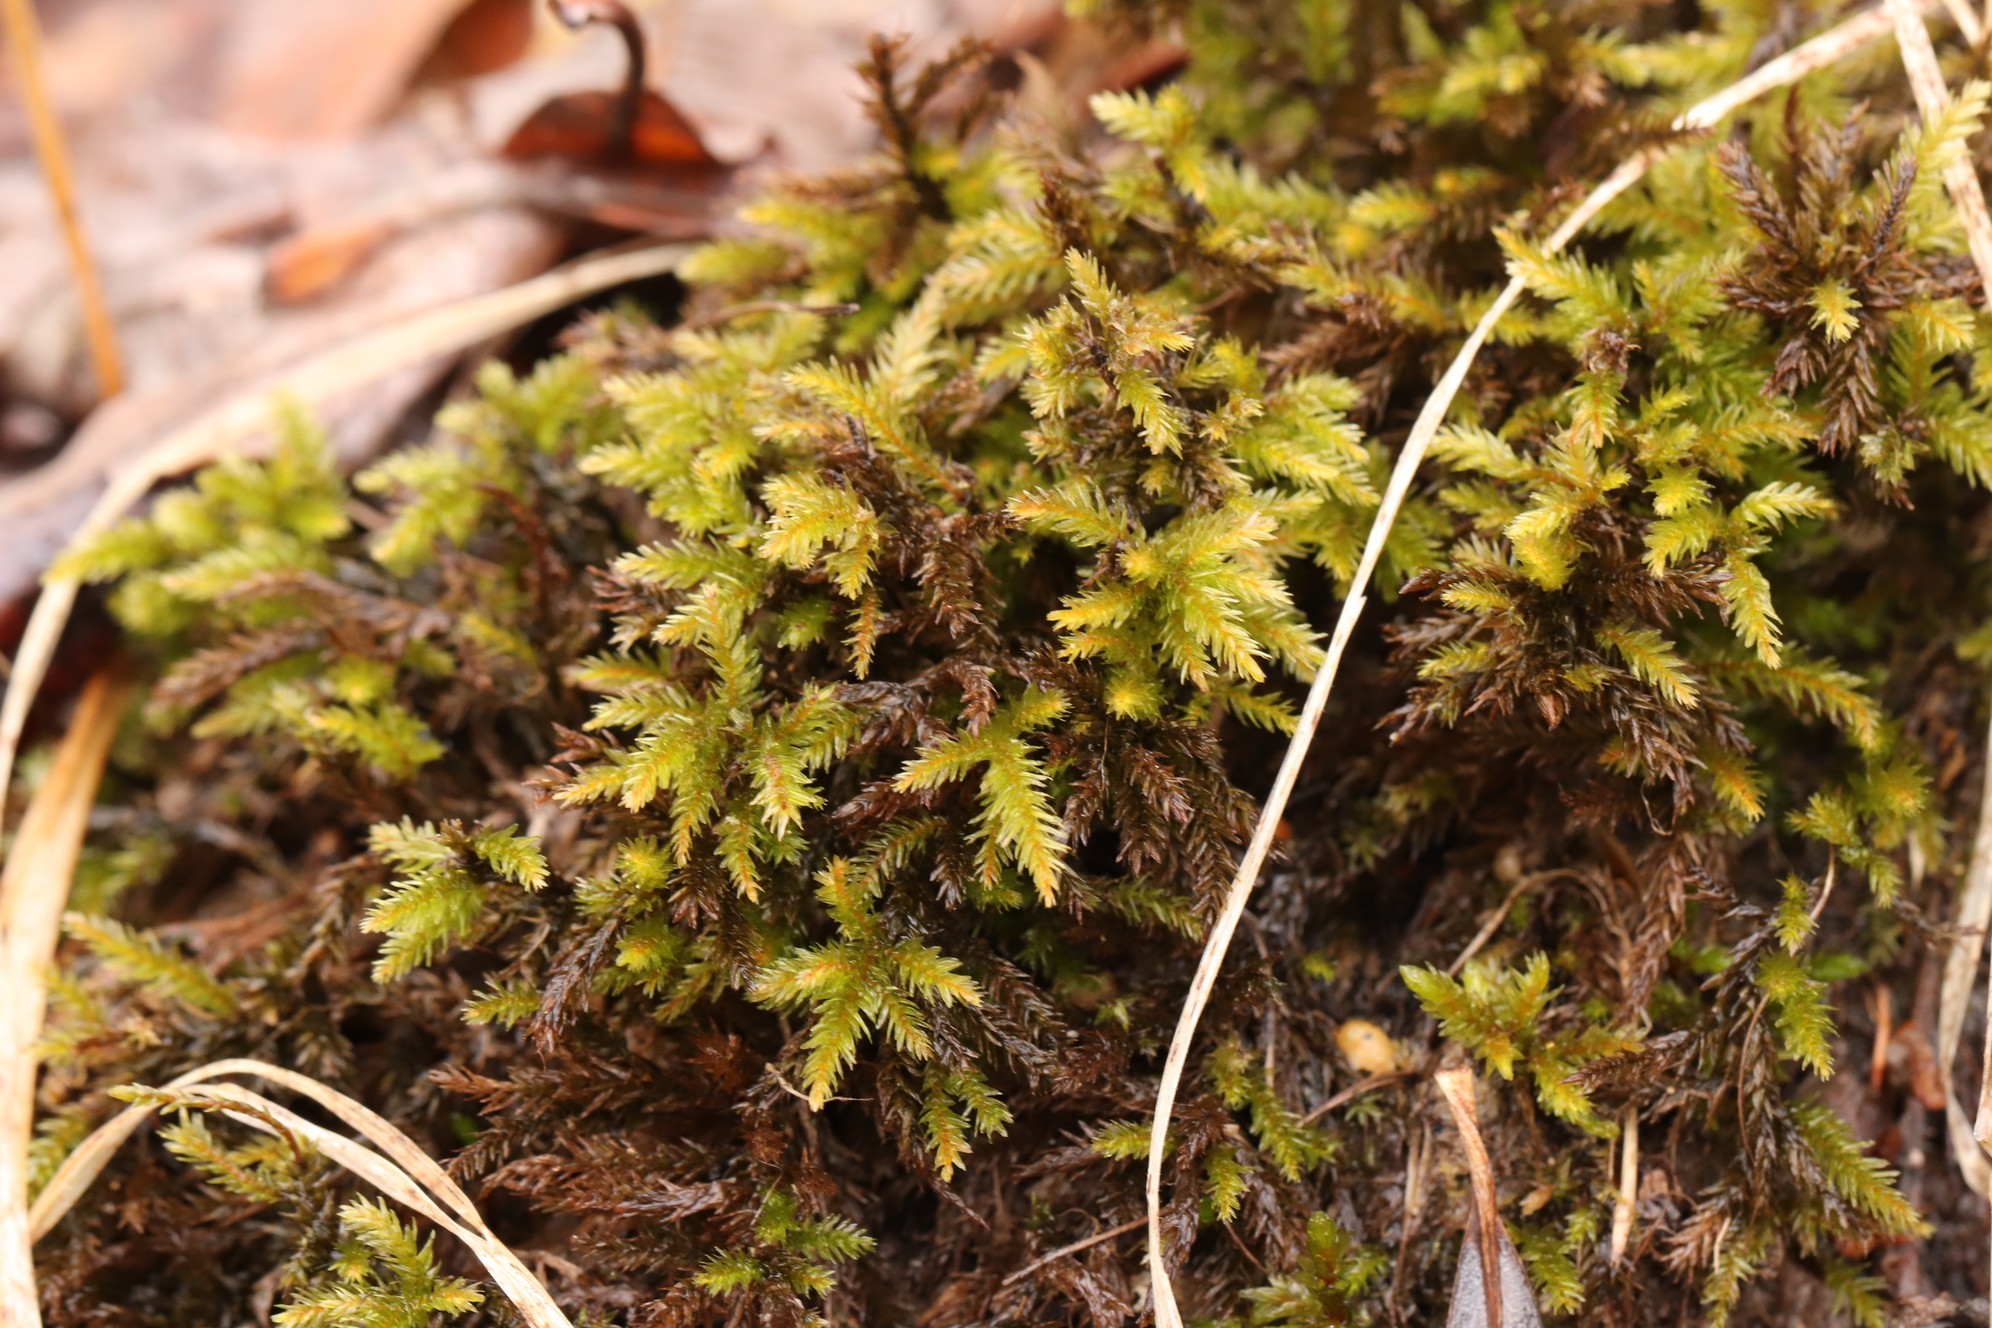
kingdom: Plantae
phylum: Bryophyta
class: Bryopsida
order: Hypnales
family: Climaciaceae
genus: Climacium
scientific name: Climacium dendroides
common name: Northern tree moss
